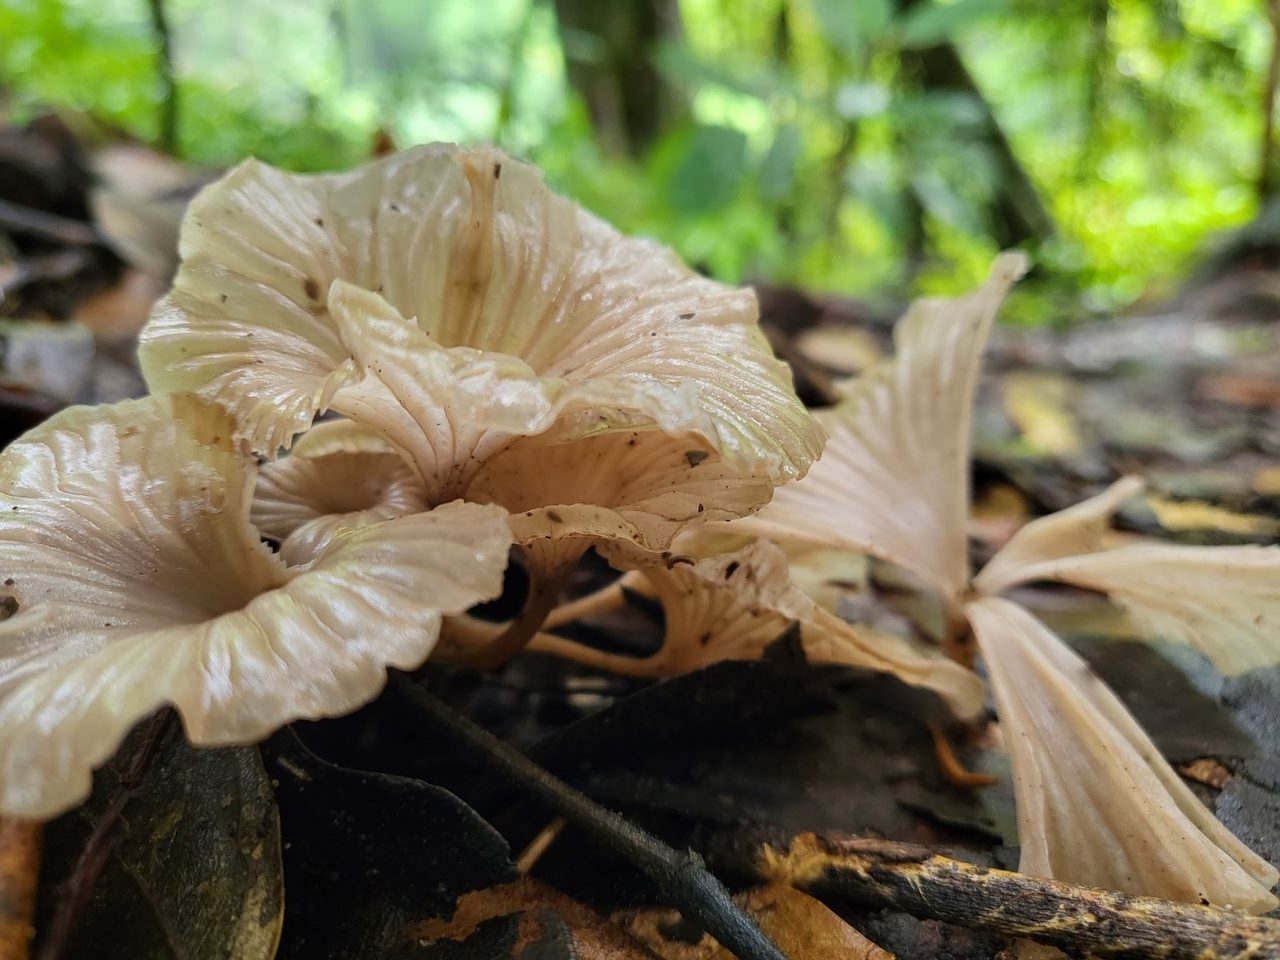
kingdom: Fungi
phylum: Basidiomycota
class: Agaricomycetes
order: Agaricales
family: Marasmiaceae
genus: Trogia
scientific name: Trogia buccinalis
